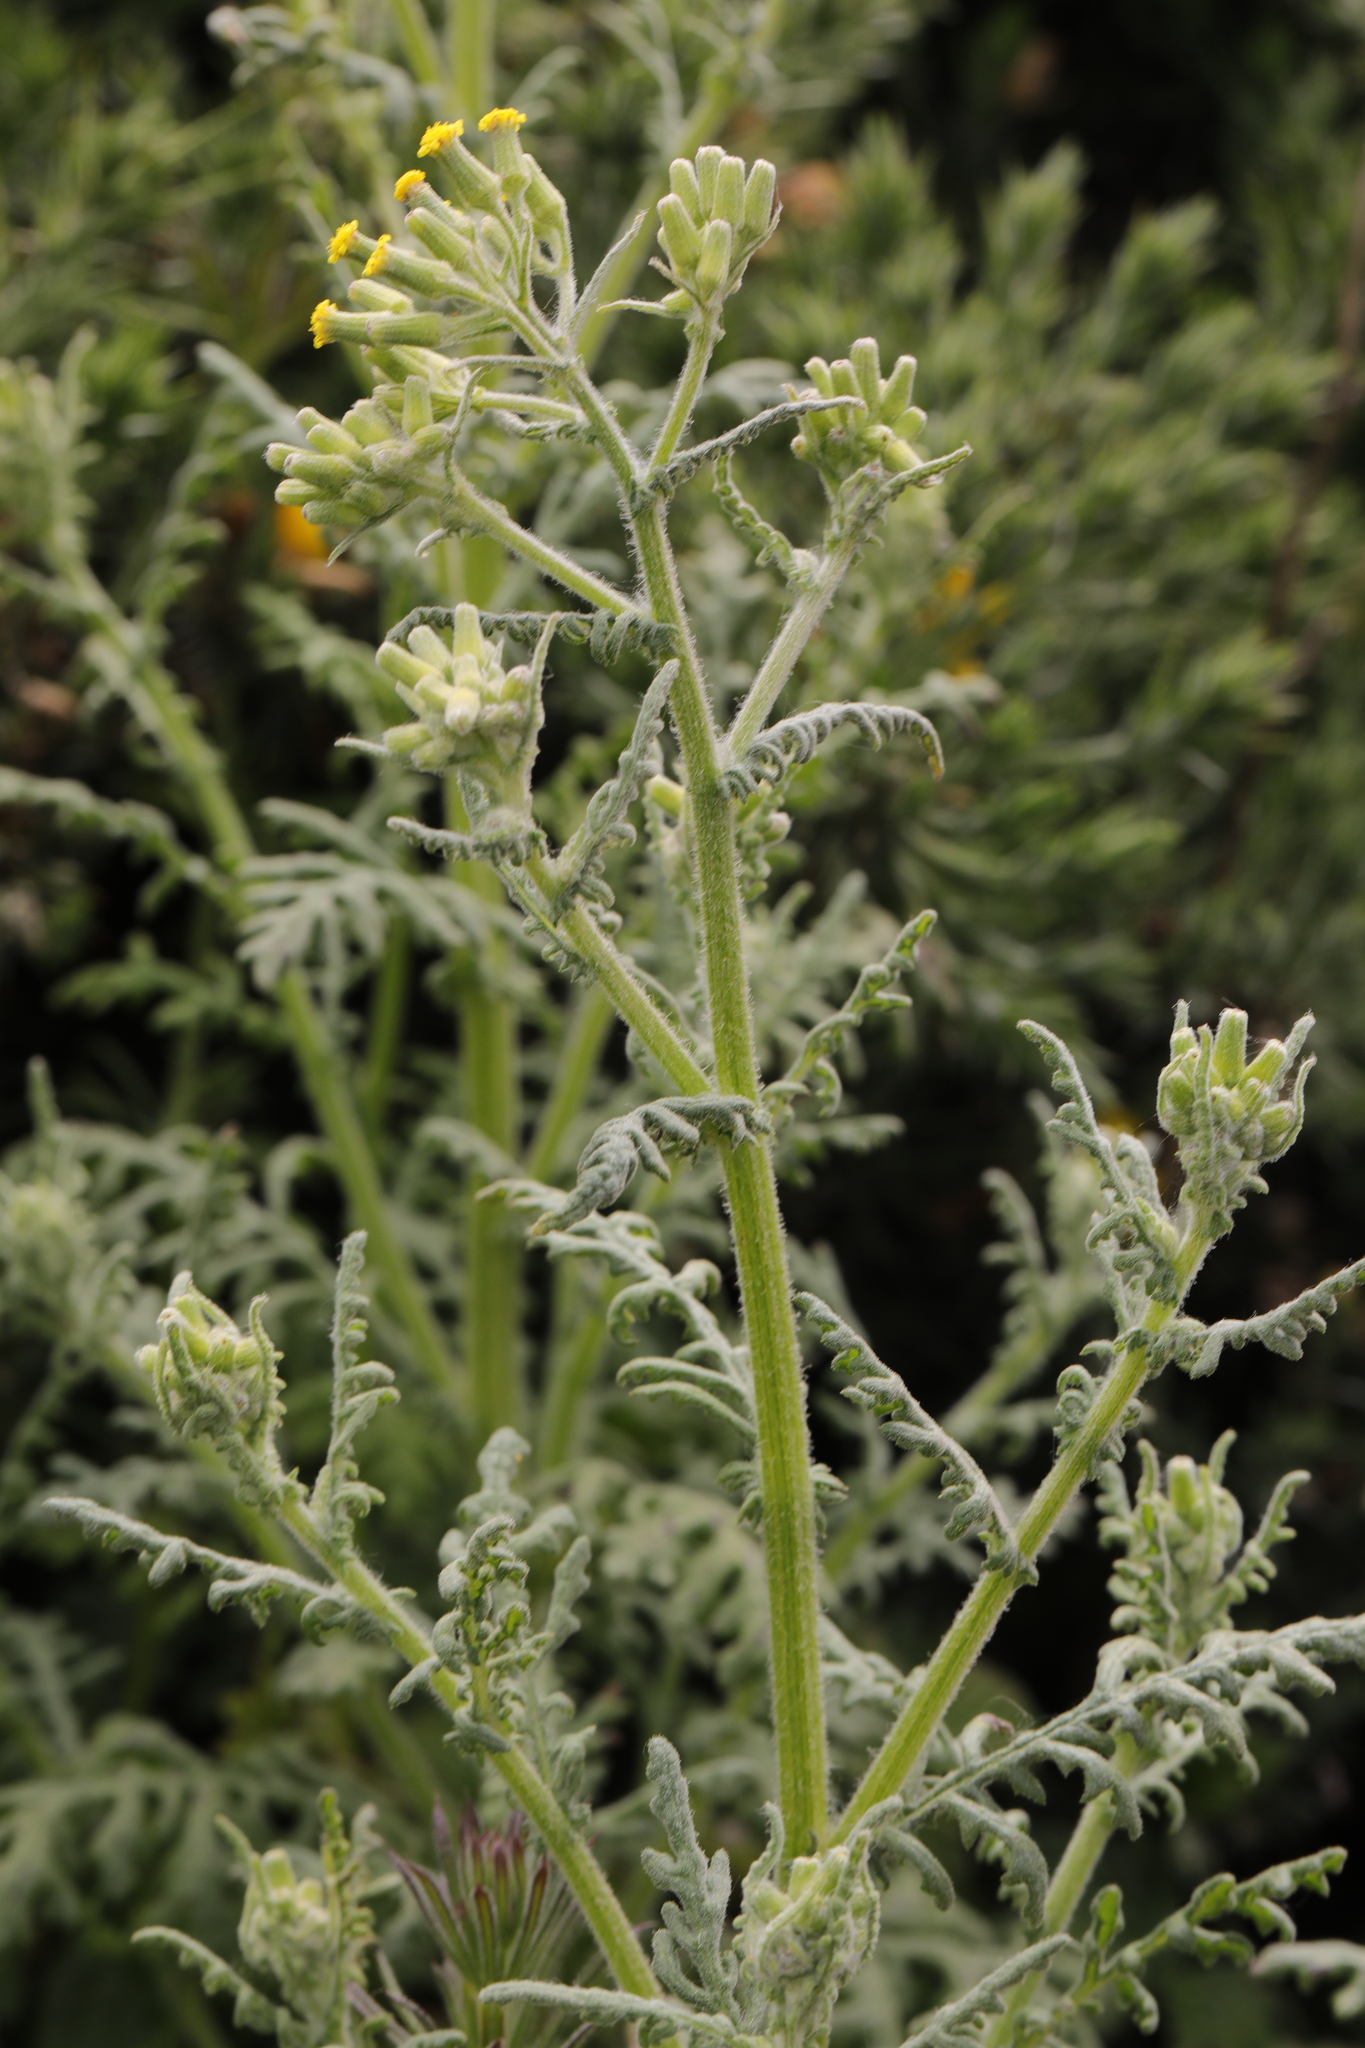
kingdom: Plantae
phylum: Tracheophyta
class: Magnoliopsida
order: Asterales
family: Asteraceae
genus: Senecio
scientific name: Senecio sylvaticus
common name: Woodland ragwort
